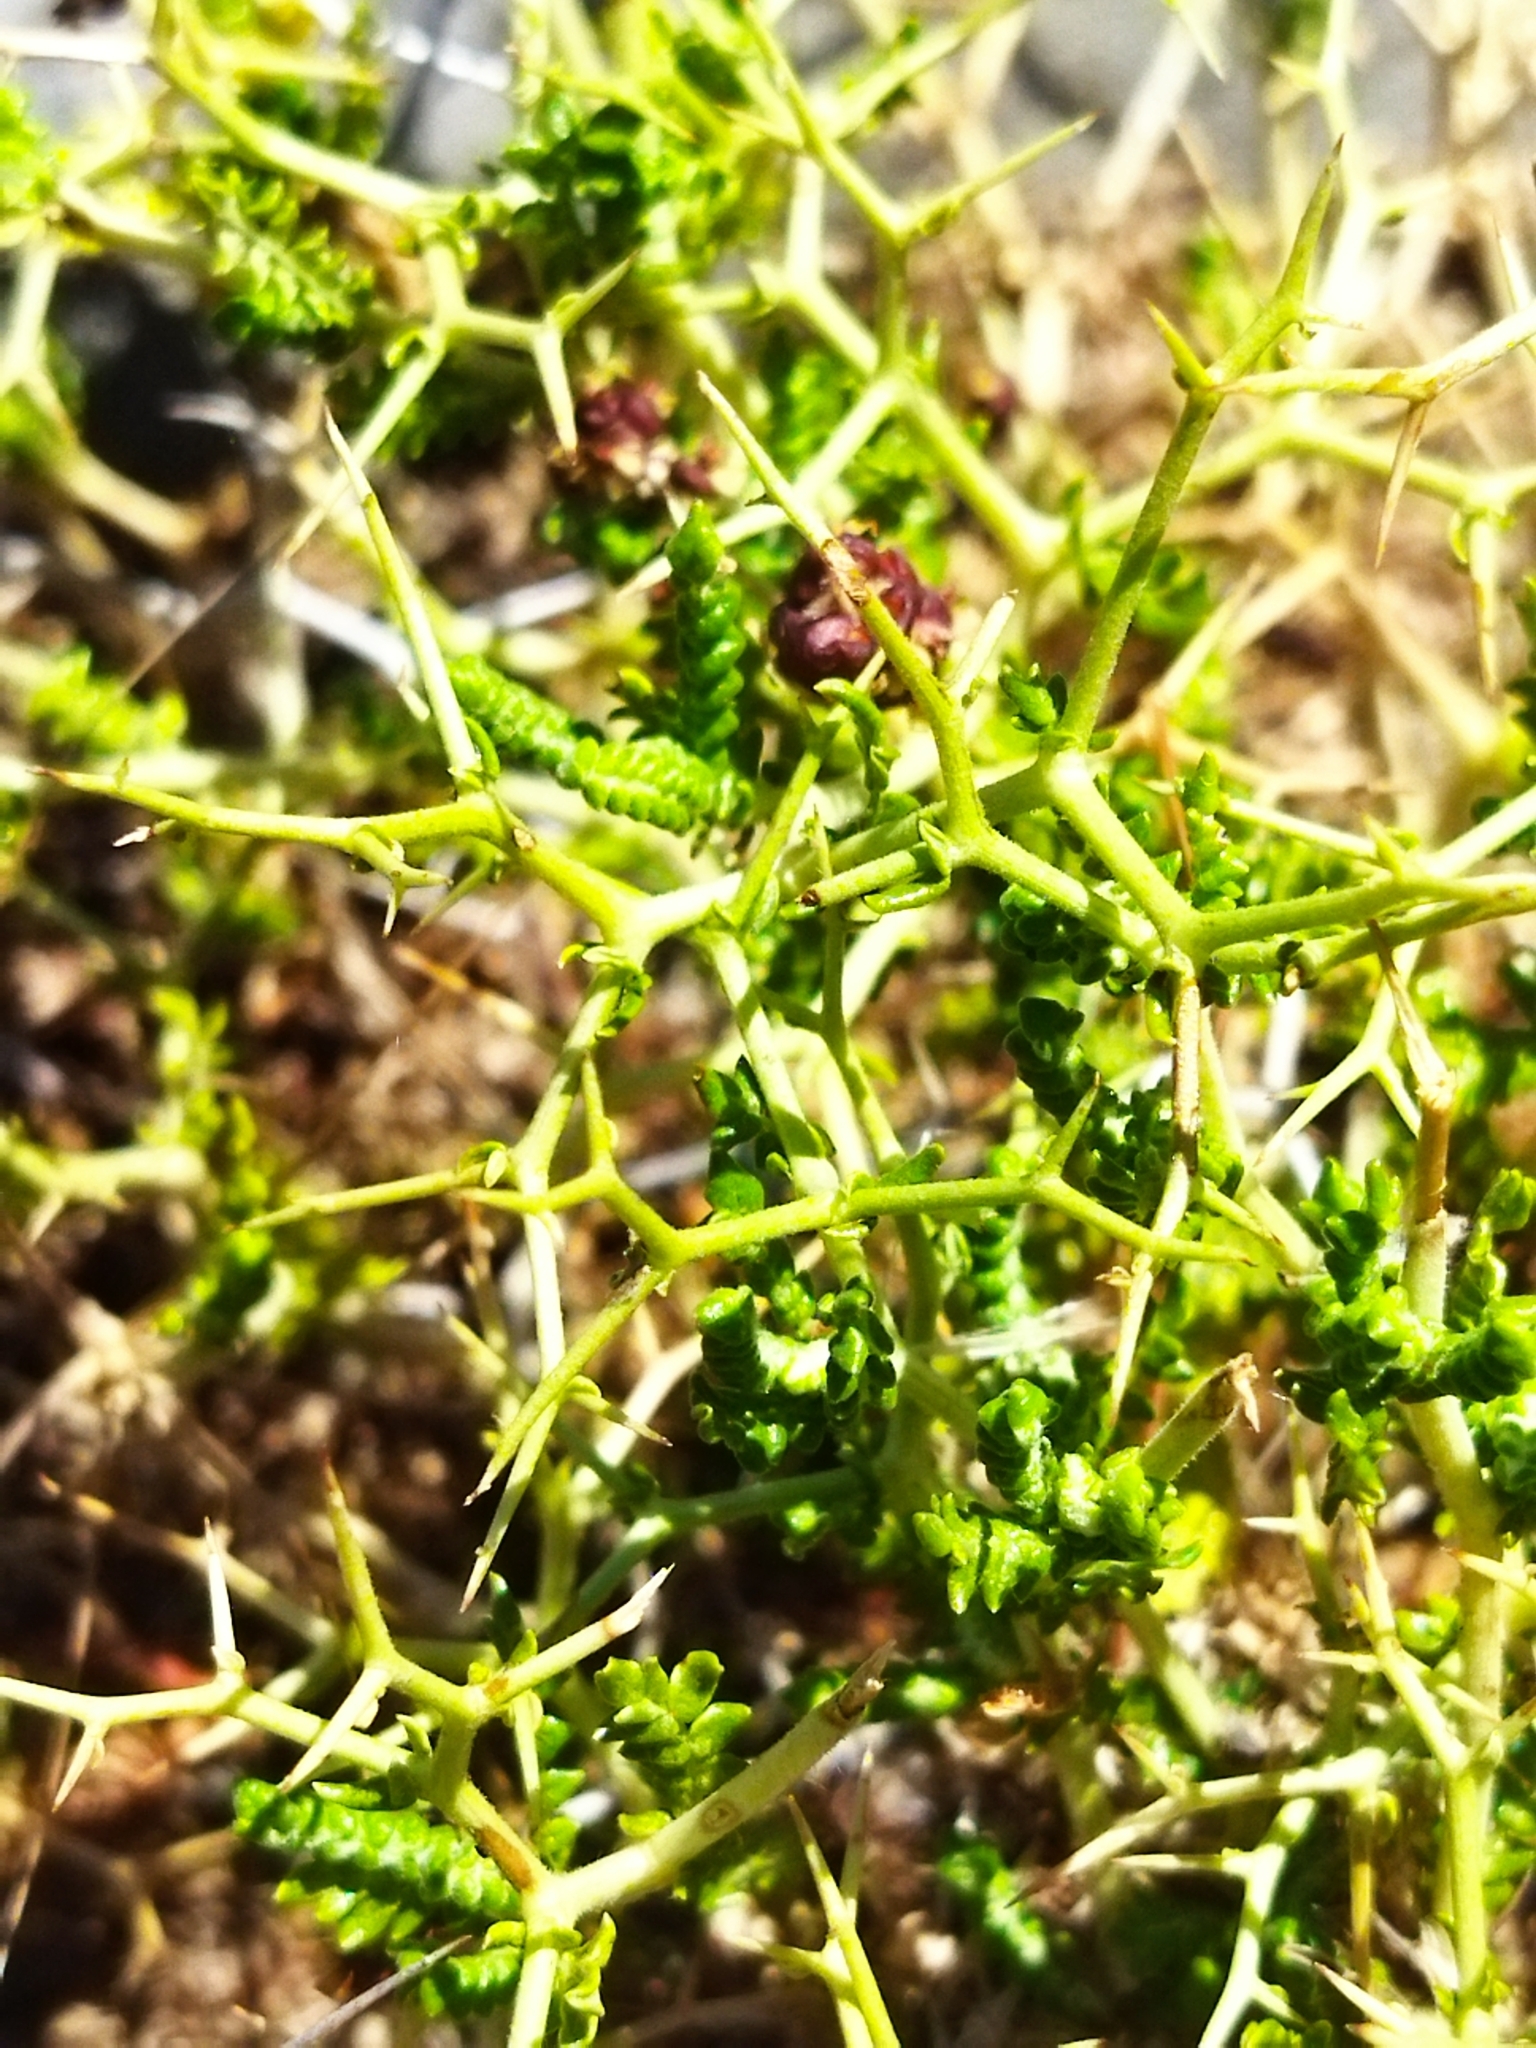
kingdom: Plantae
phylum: Tracheophyta
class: Magnoliopsida
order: Rosales
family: Rosaceae
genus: Sarcopoterium
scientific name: Sarcopoterium spinosum
